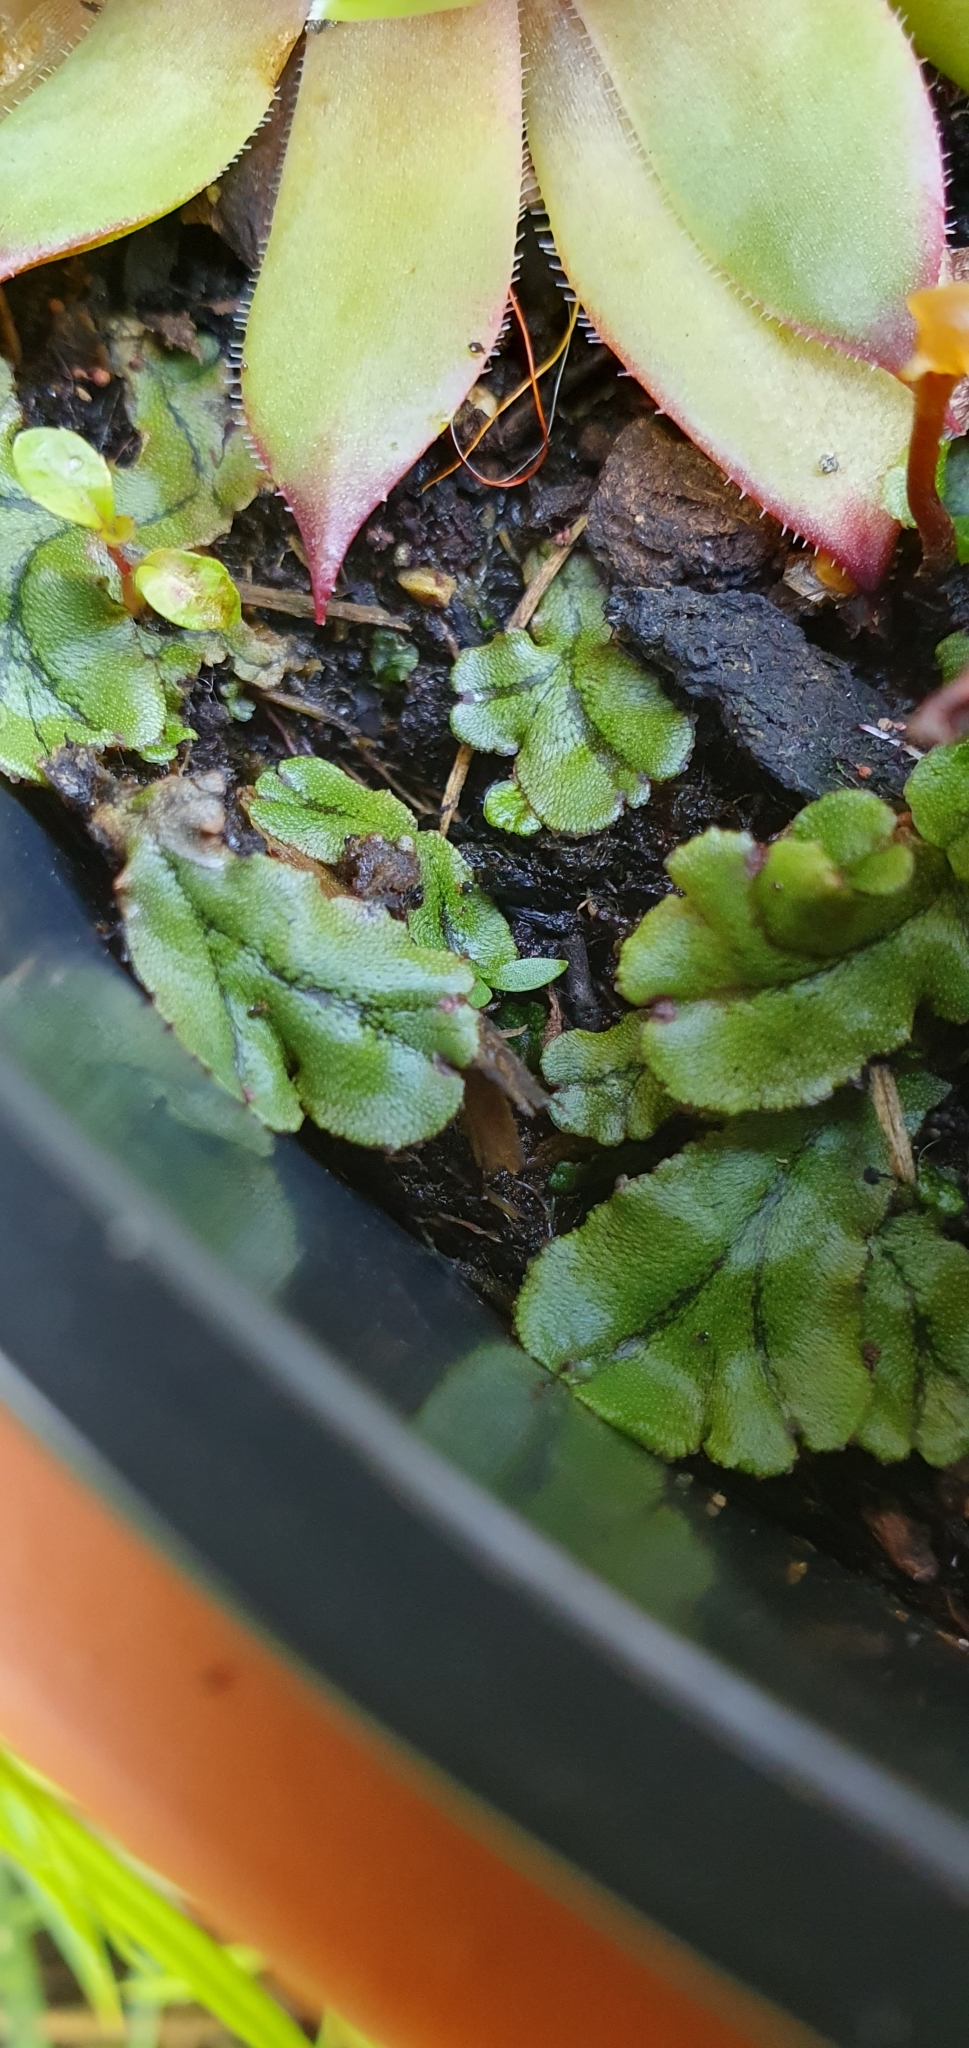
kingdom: Plantae
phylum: Marchantiophyta
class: Marchantiopsida
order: Marchantiales
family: Marchantiaceae
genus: Marchantia
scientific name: Marchantia polymorpha
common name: Common liverwort
